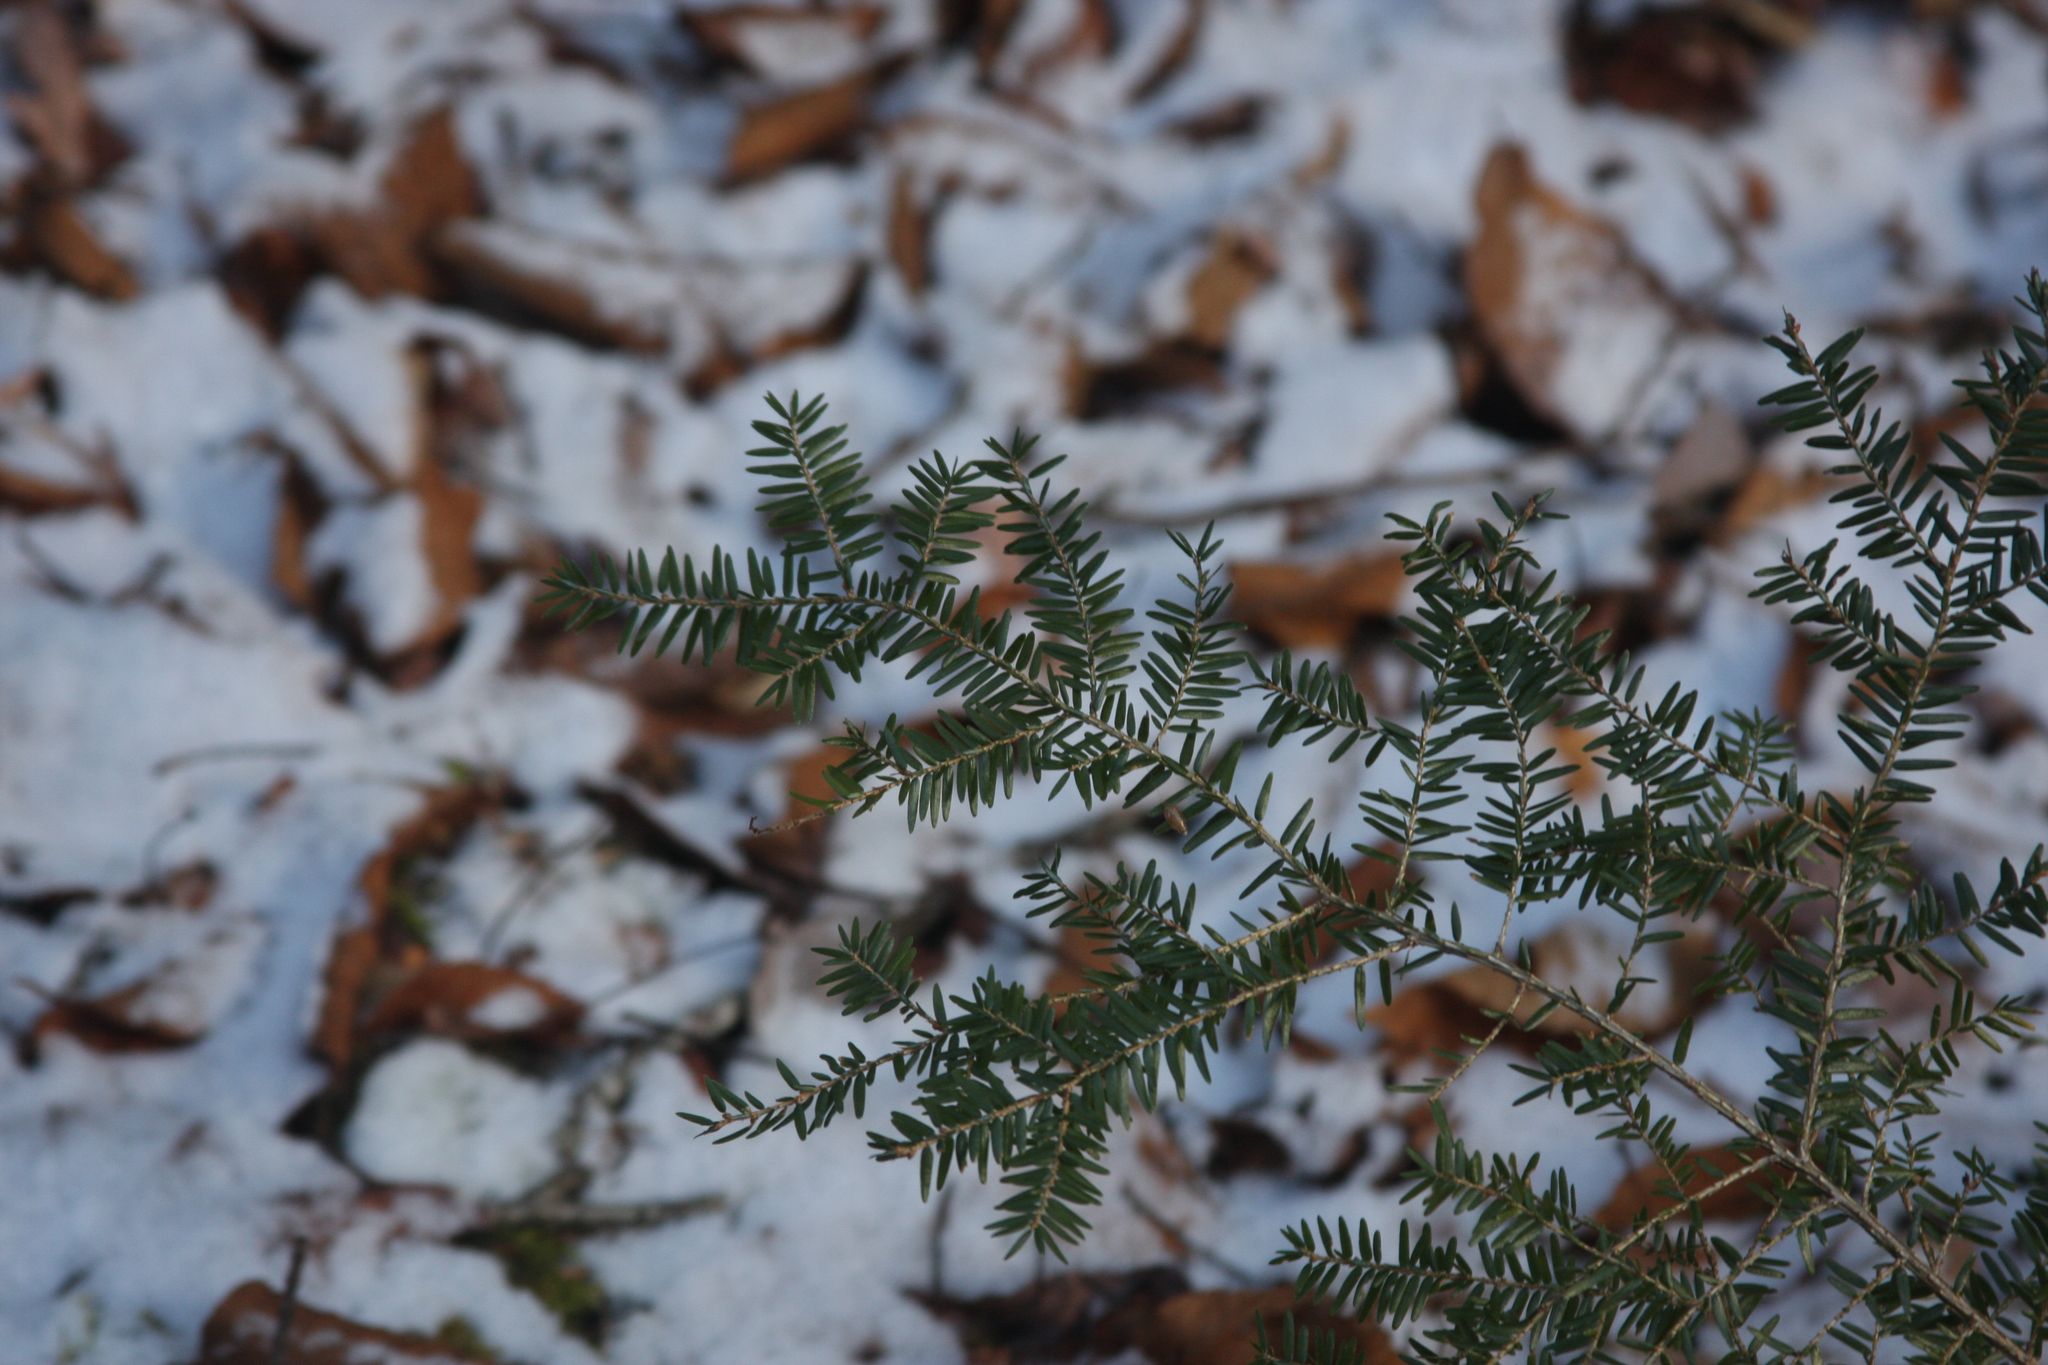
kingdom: Plantae
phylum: Tracheophyta
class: Pinopsida
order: Pinales
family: Pinaceae
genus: Tsuga
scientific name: Tsuga canadensis
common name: Eastern hemlock
